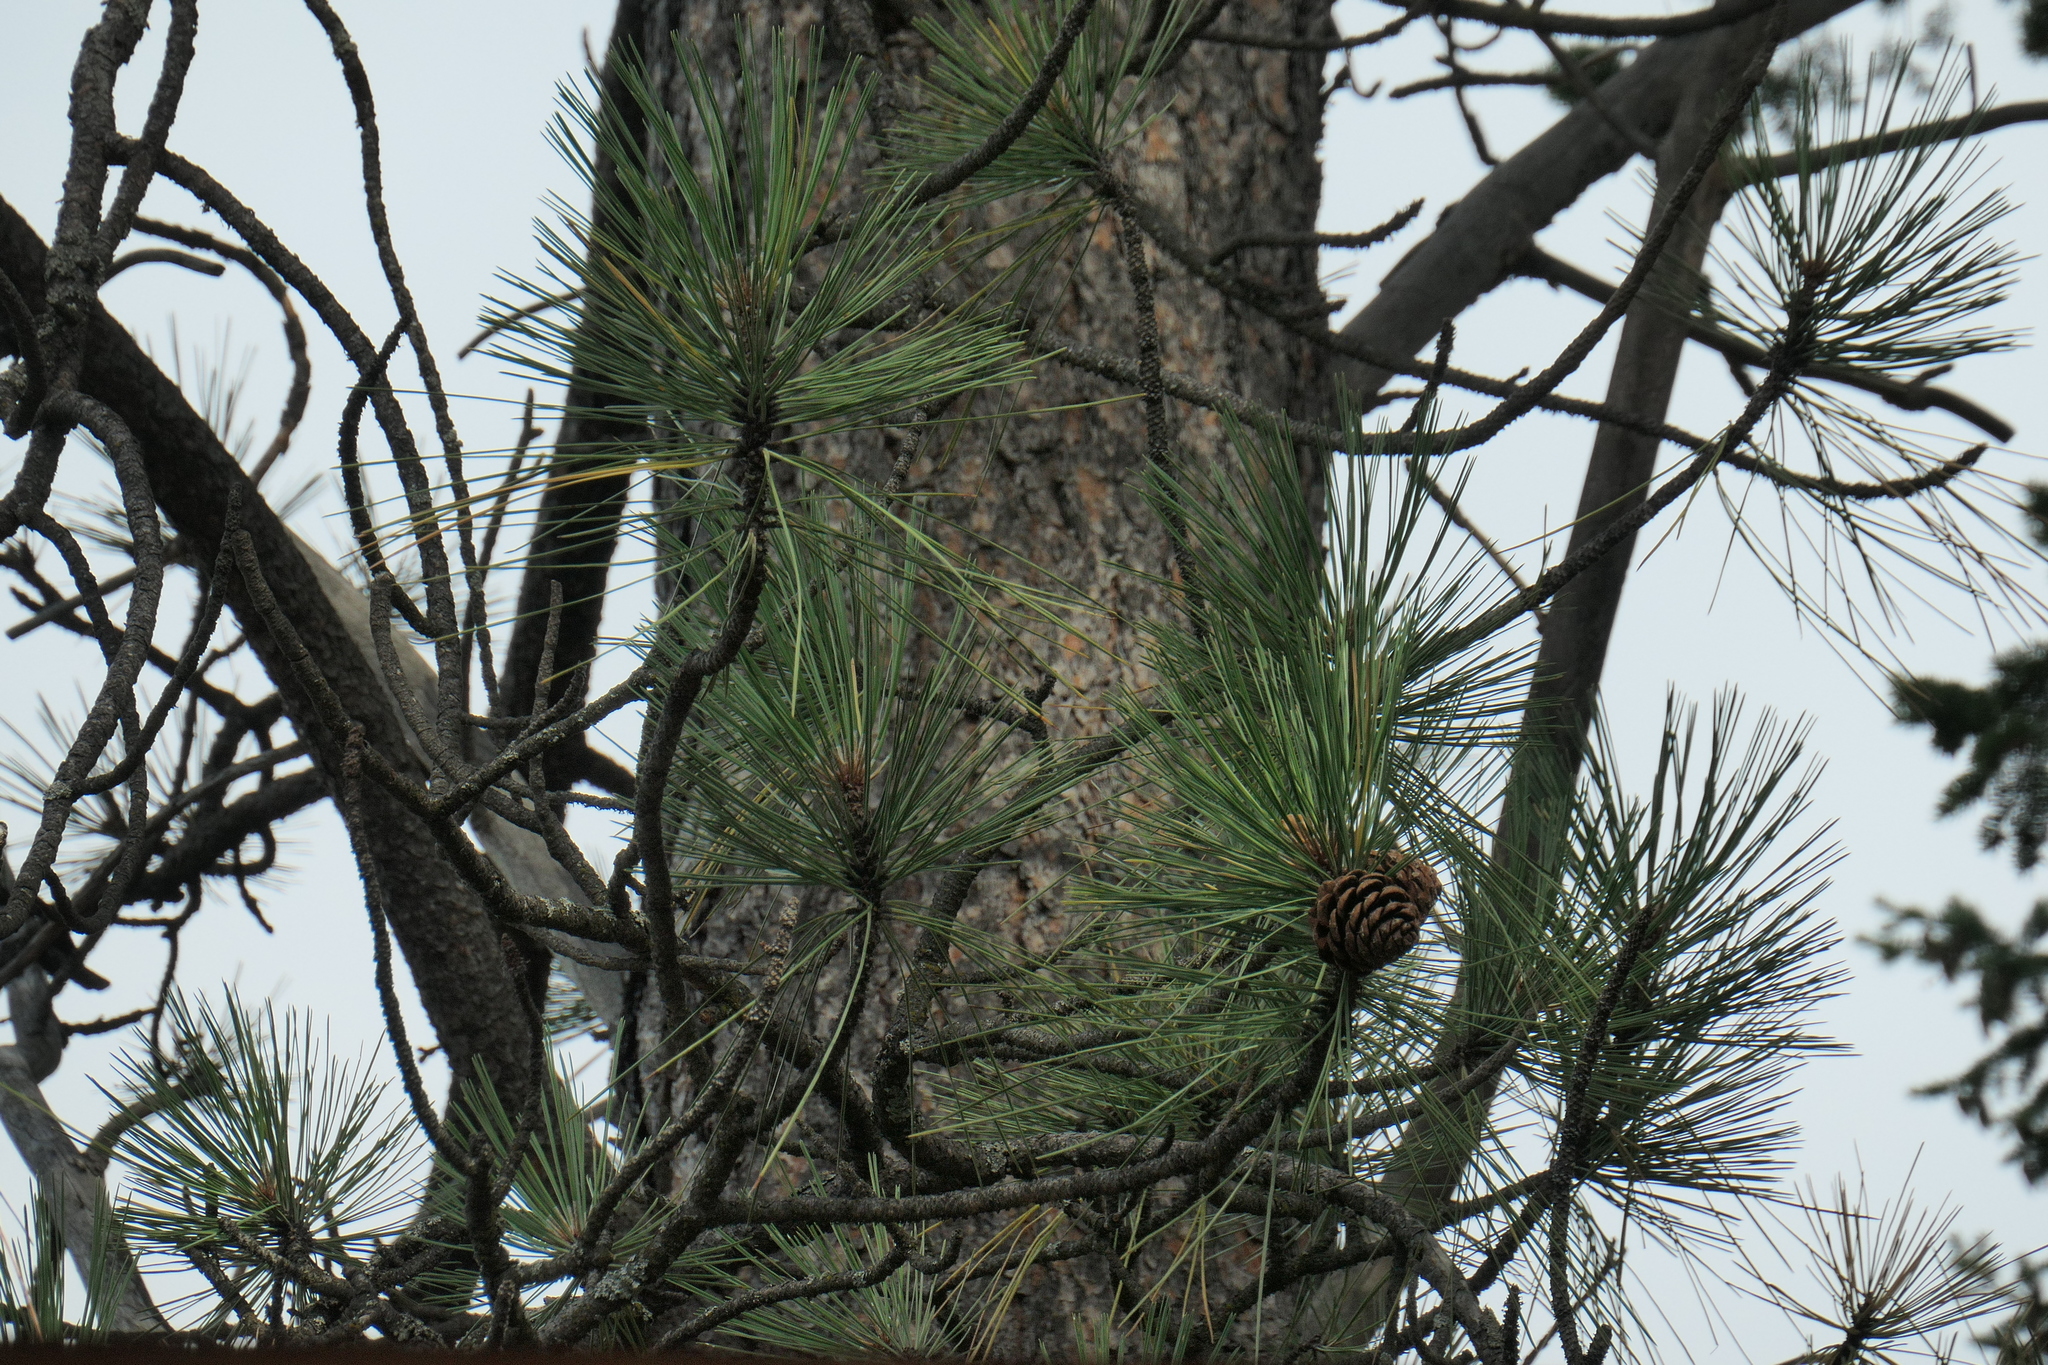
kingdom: Plantae
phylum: Tracheophyta
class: Pinopsida
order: Pinales
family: Pinaceae
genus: Pinus
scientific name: Pinus ponderosa
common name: Western yellow-pine
